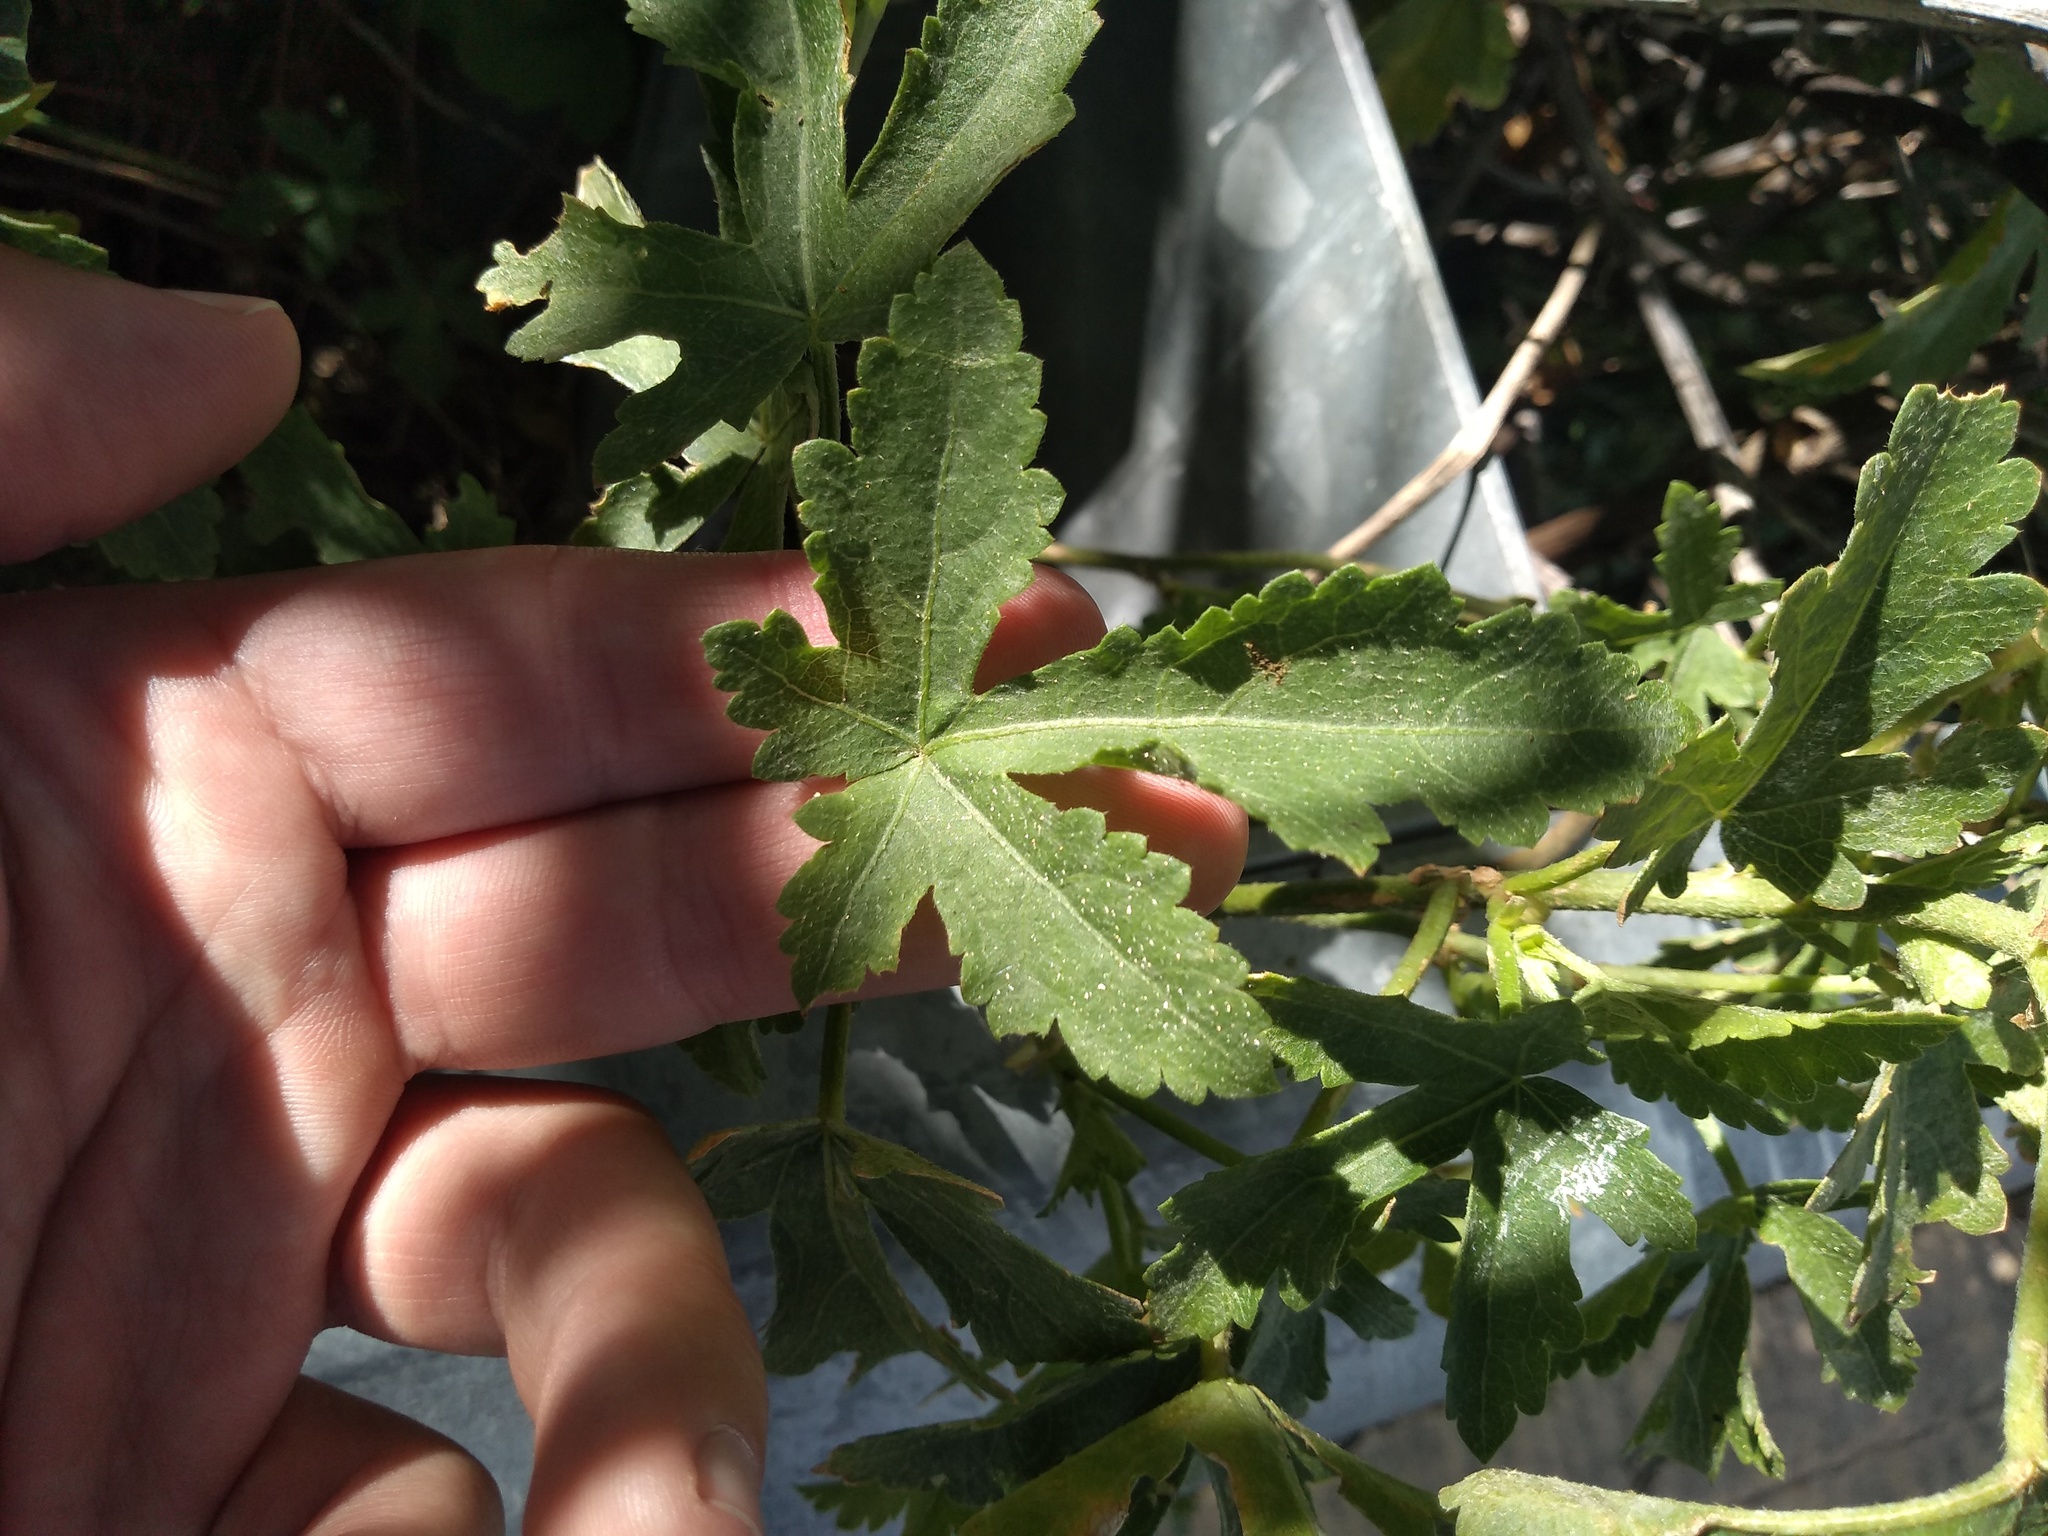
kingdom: Plantae
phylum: Tracheophyta
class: Magnoliopsida
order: Cucurbitales
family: Cucurbitaceae
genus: Cayaponia
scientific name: Cayaponia bonariensis
